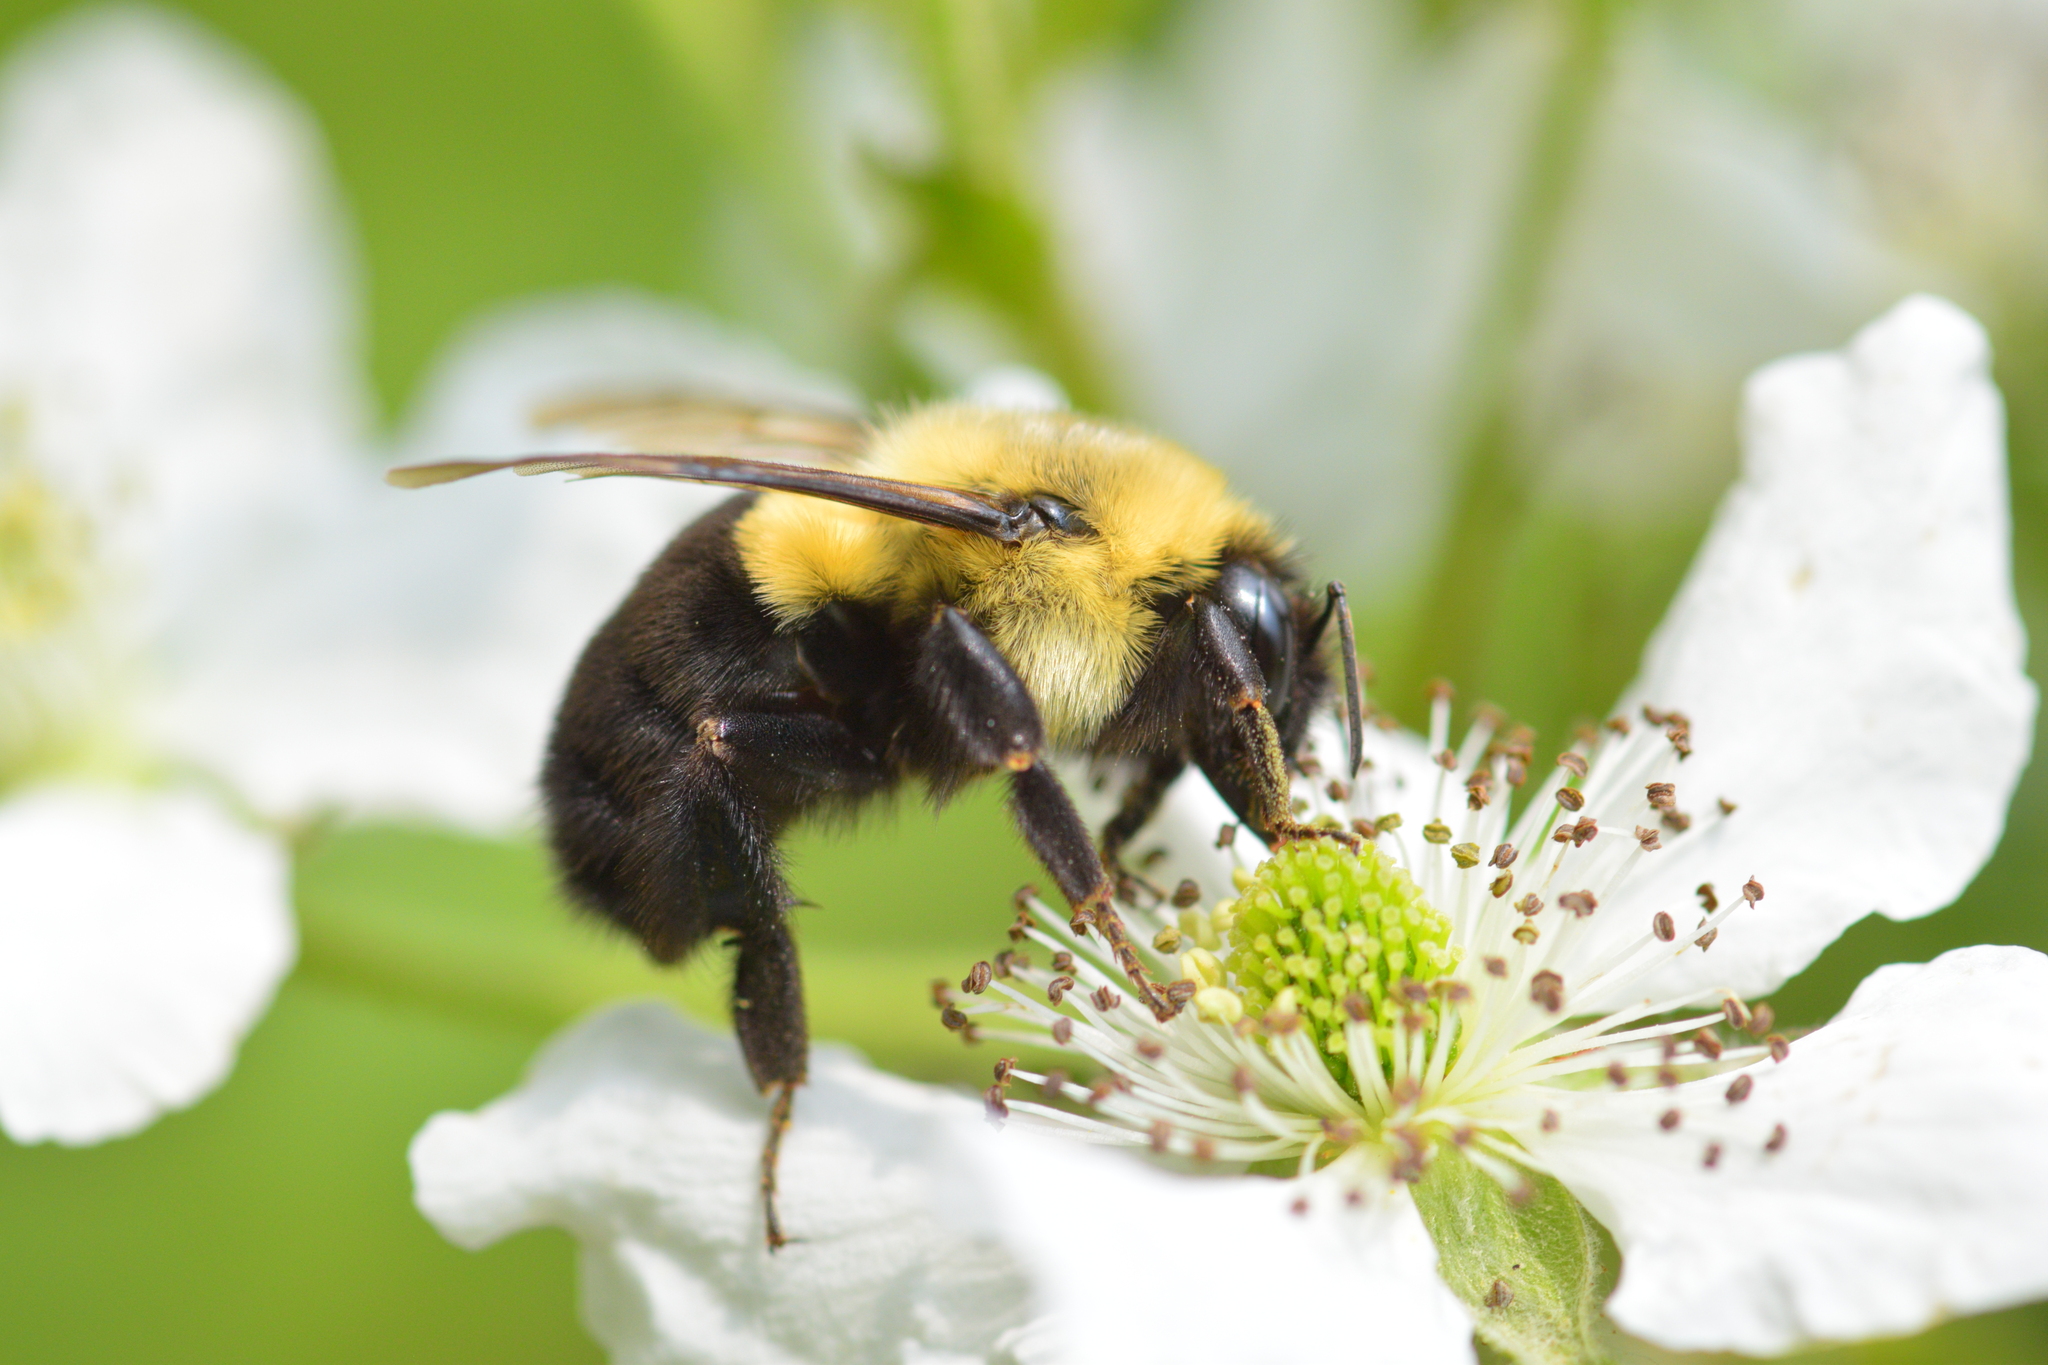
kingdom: Animalia
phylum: Arthropoda
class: Insecta
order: Hymenoptera
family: Apidae
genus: Bombus
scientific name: Bombus impatiens
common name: Common eastern bumble bee
